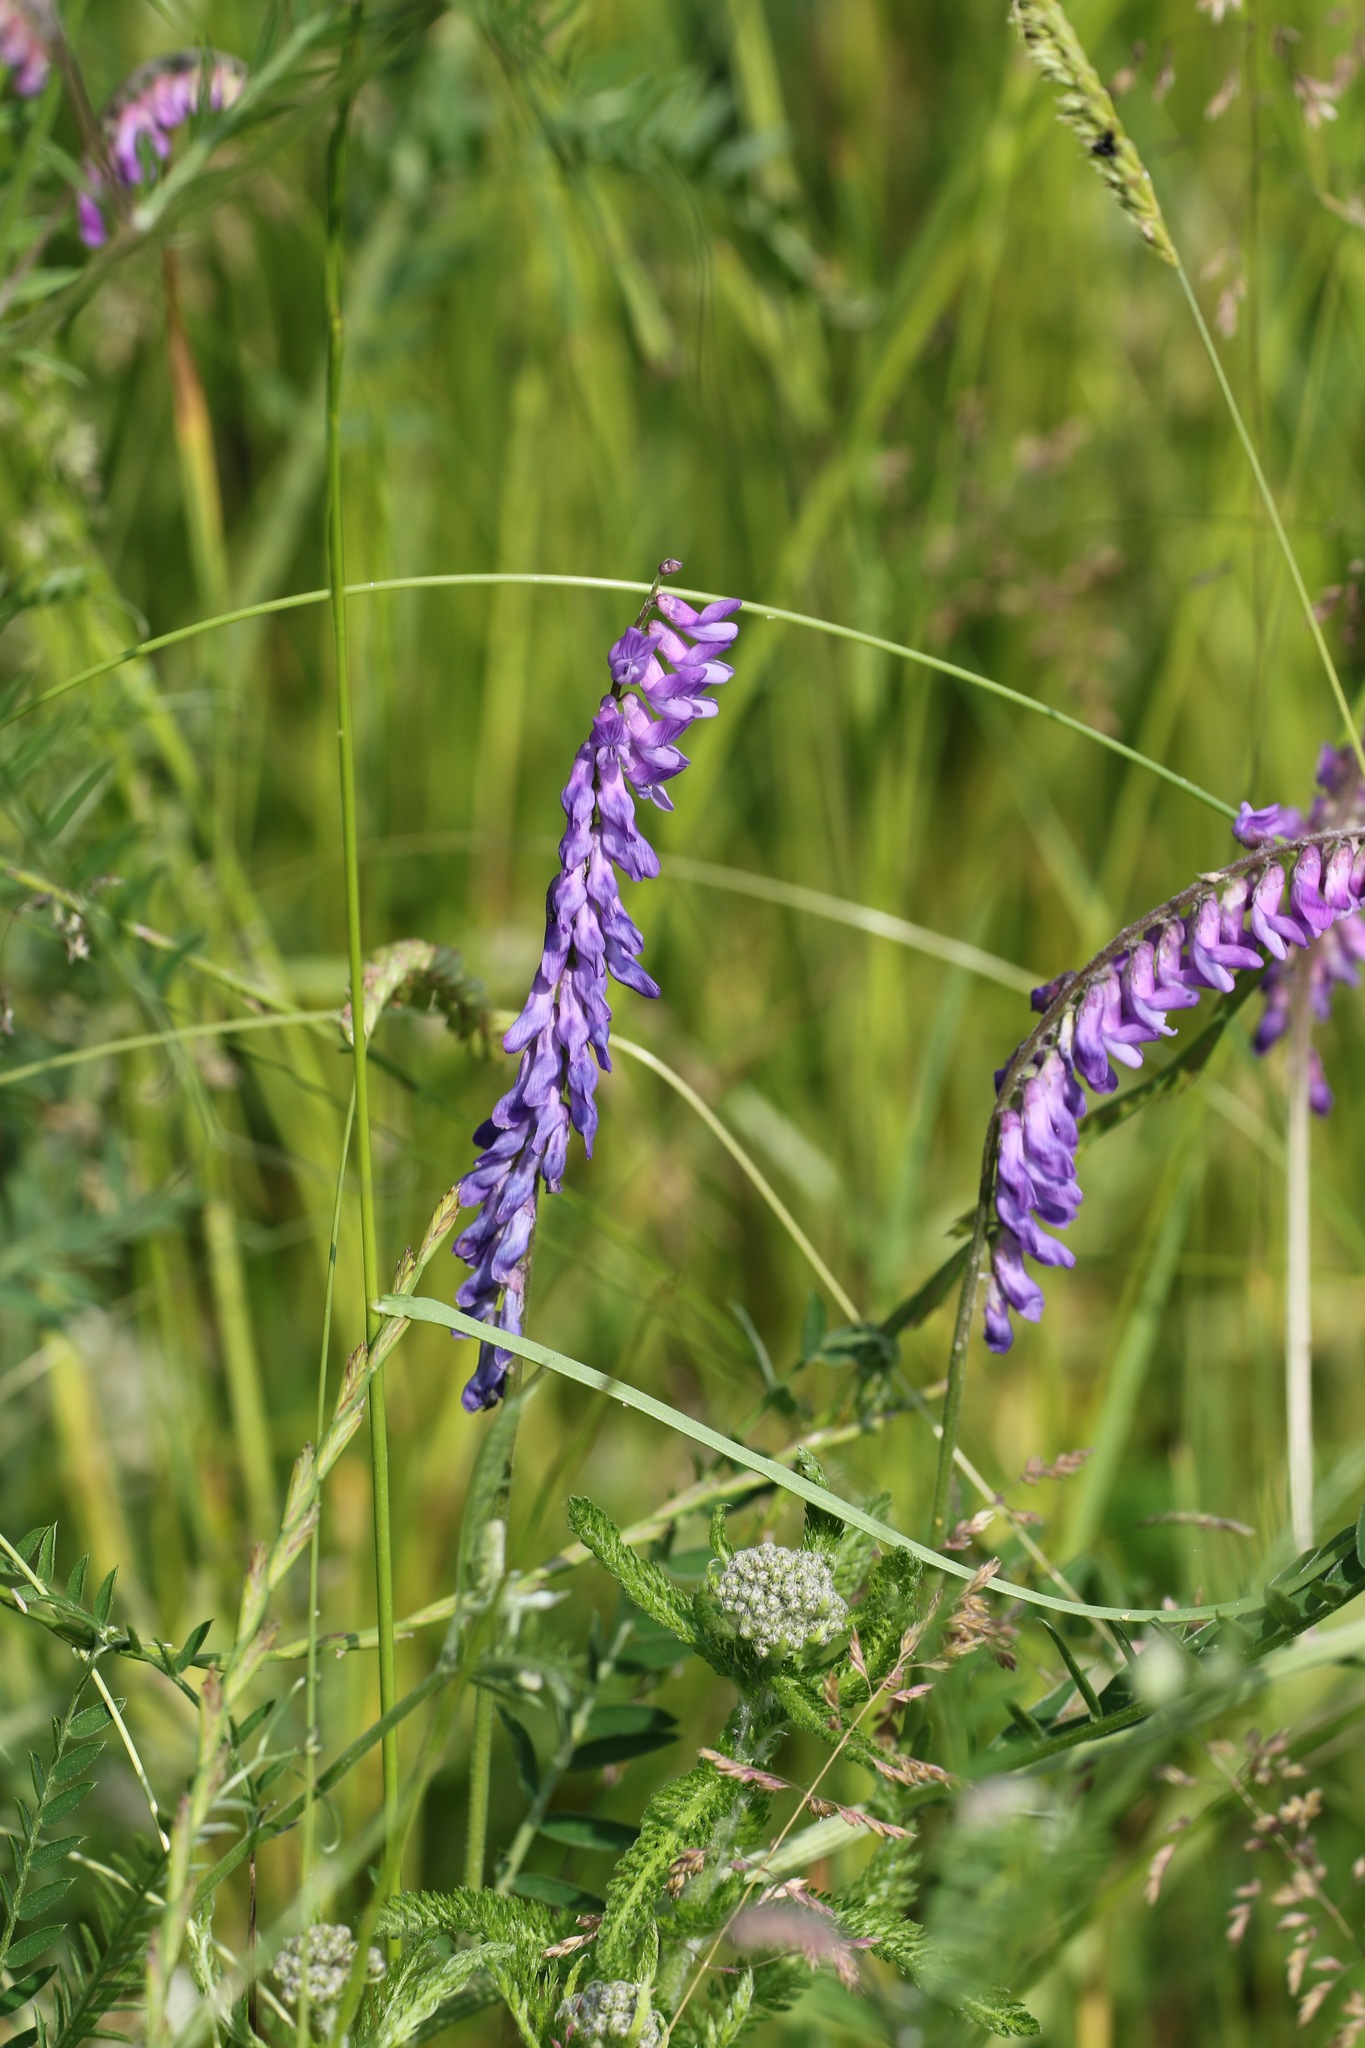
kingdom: Plantae
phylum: Tracheophyta
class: Magnoliopsida
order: Fabales
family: Fabaceae
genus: Vicia
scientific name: Vicia cracca
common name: Bird vetch
